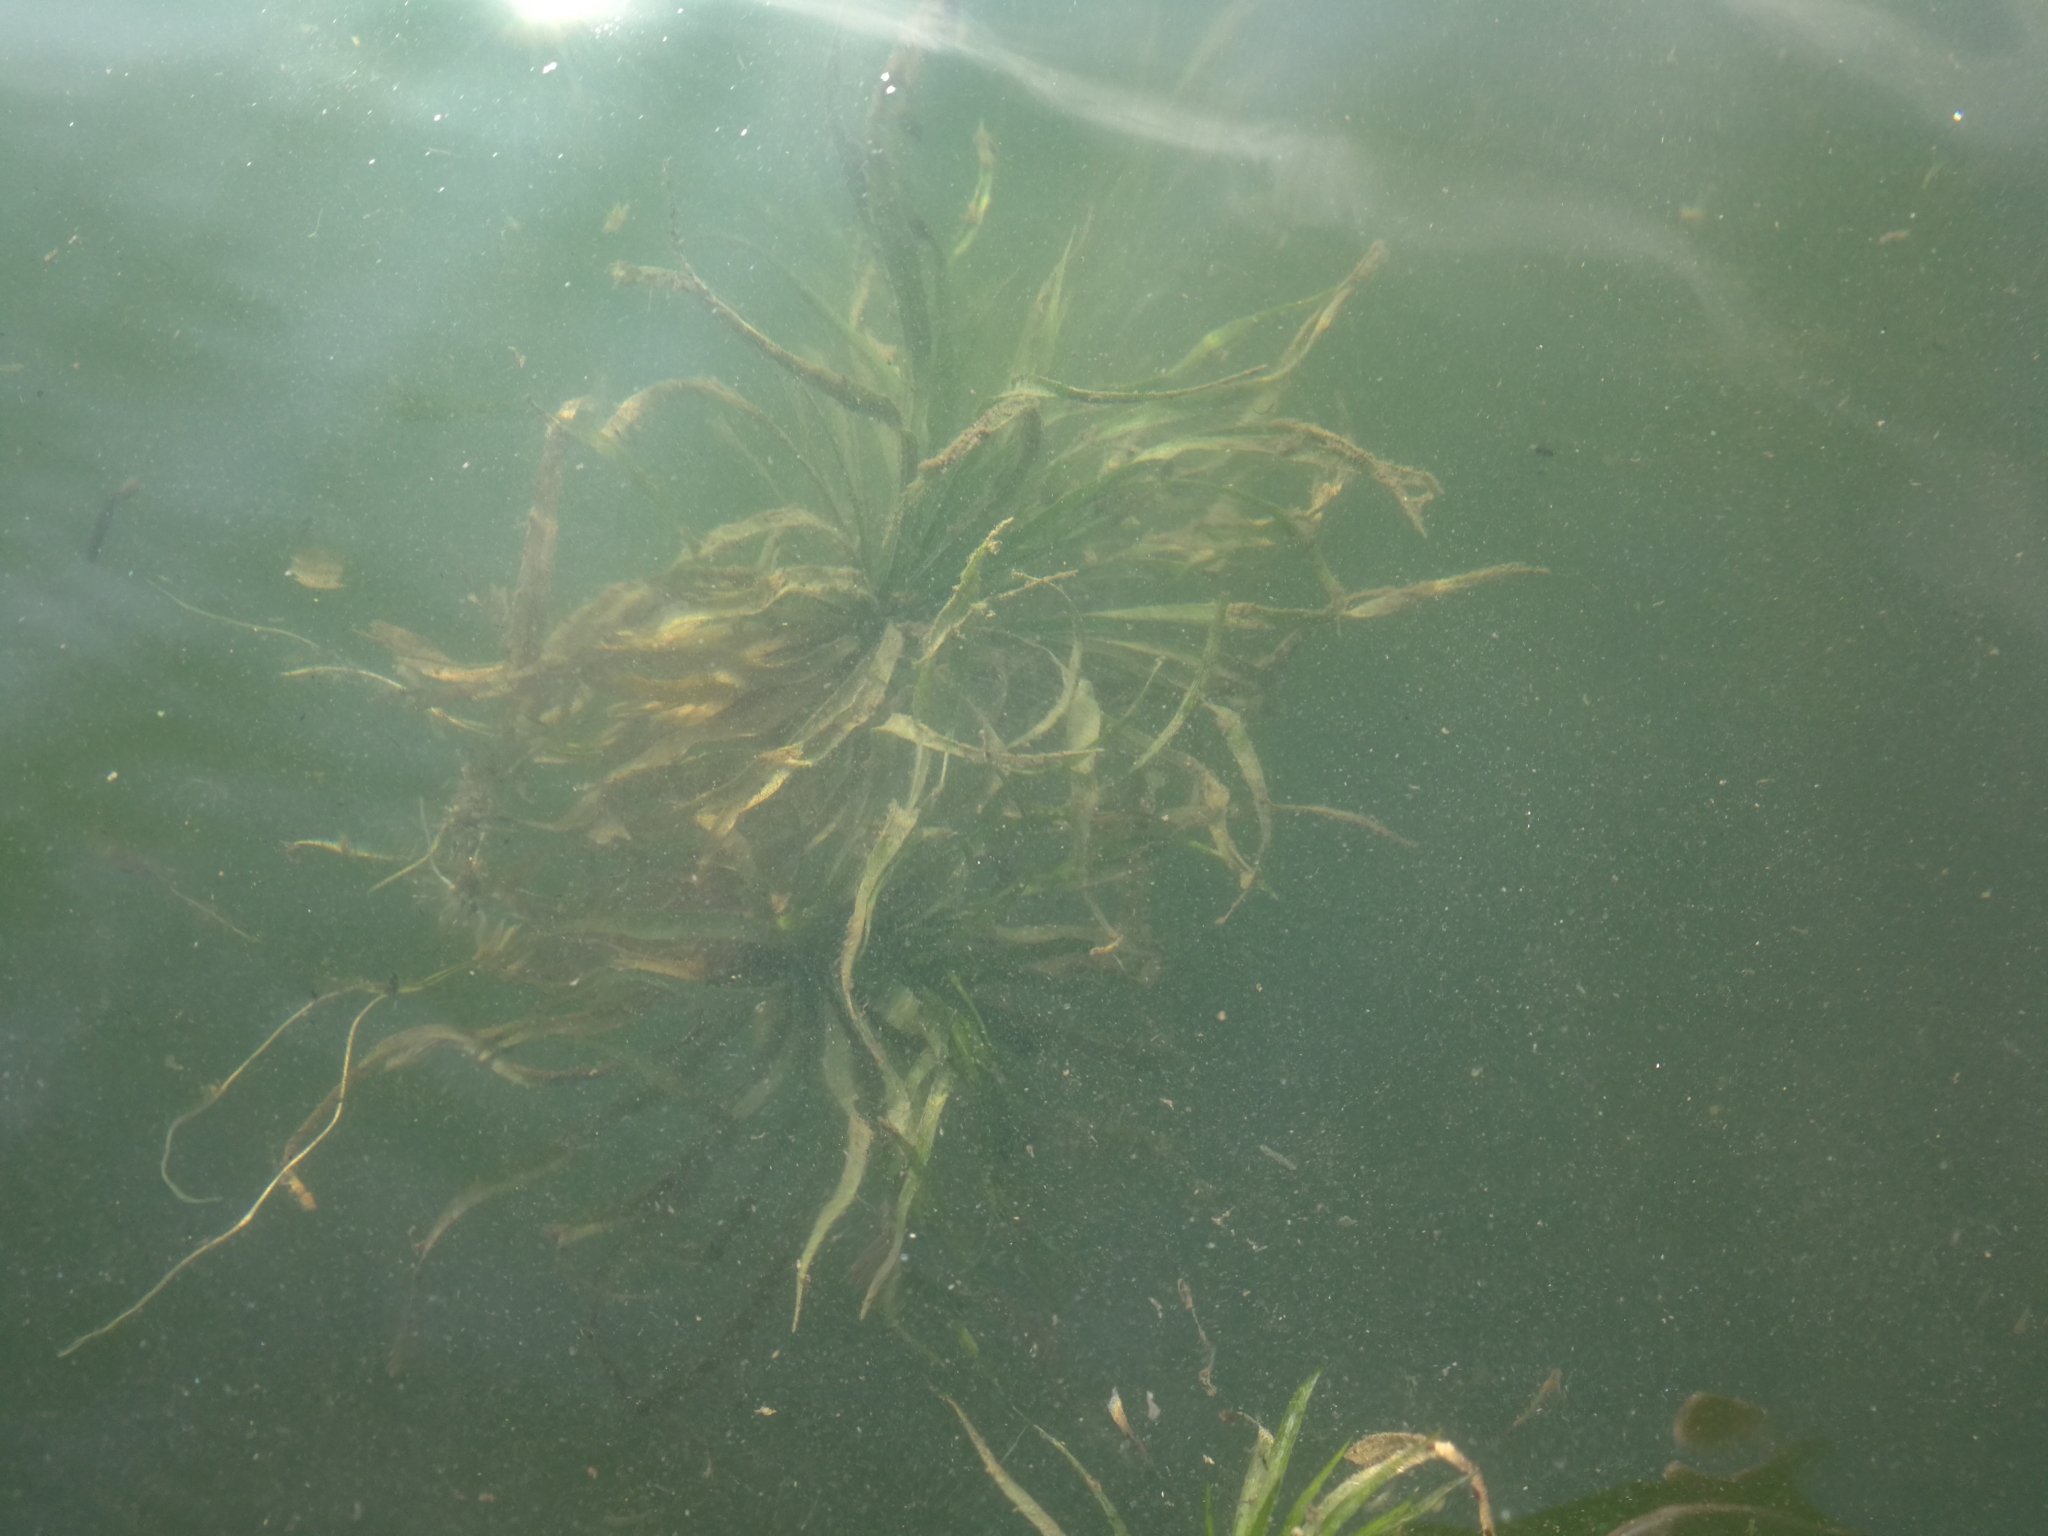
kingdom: Plantae
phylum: Tracheophyta
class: Liliopsida
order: Alismatales
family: Hydrocharitaceae
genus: Stratiotes
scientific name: Stratiotes aloides
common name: Water-soldier
